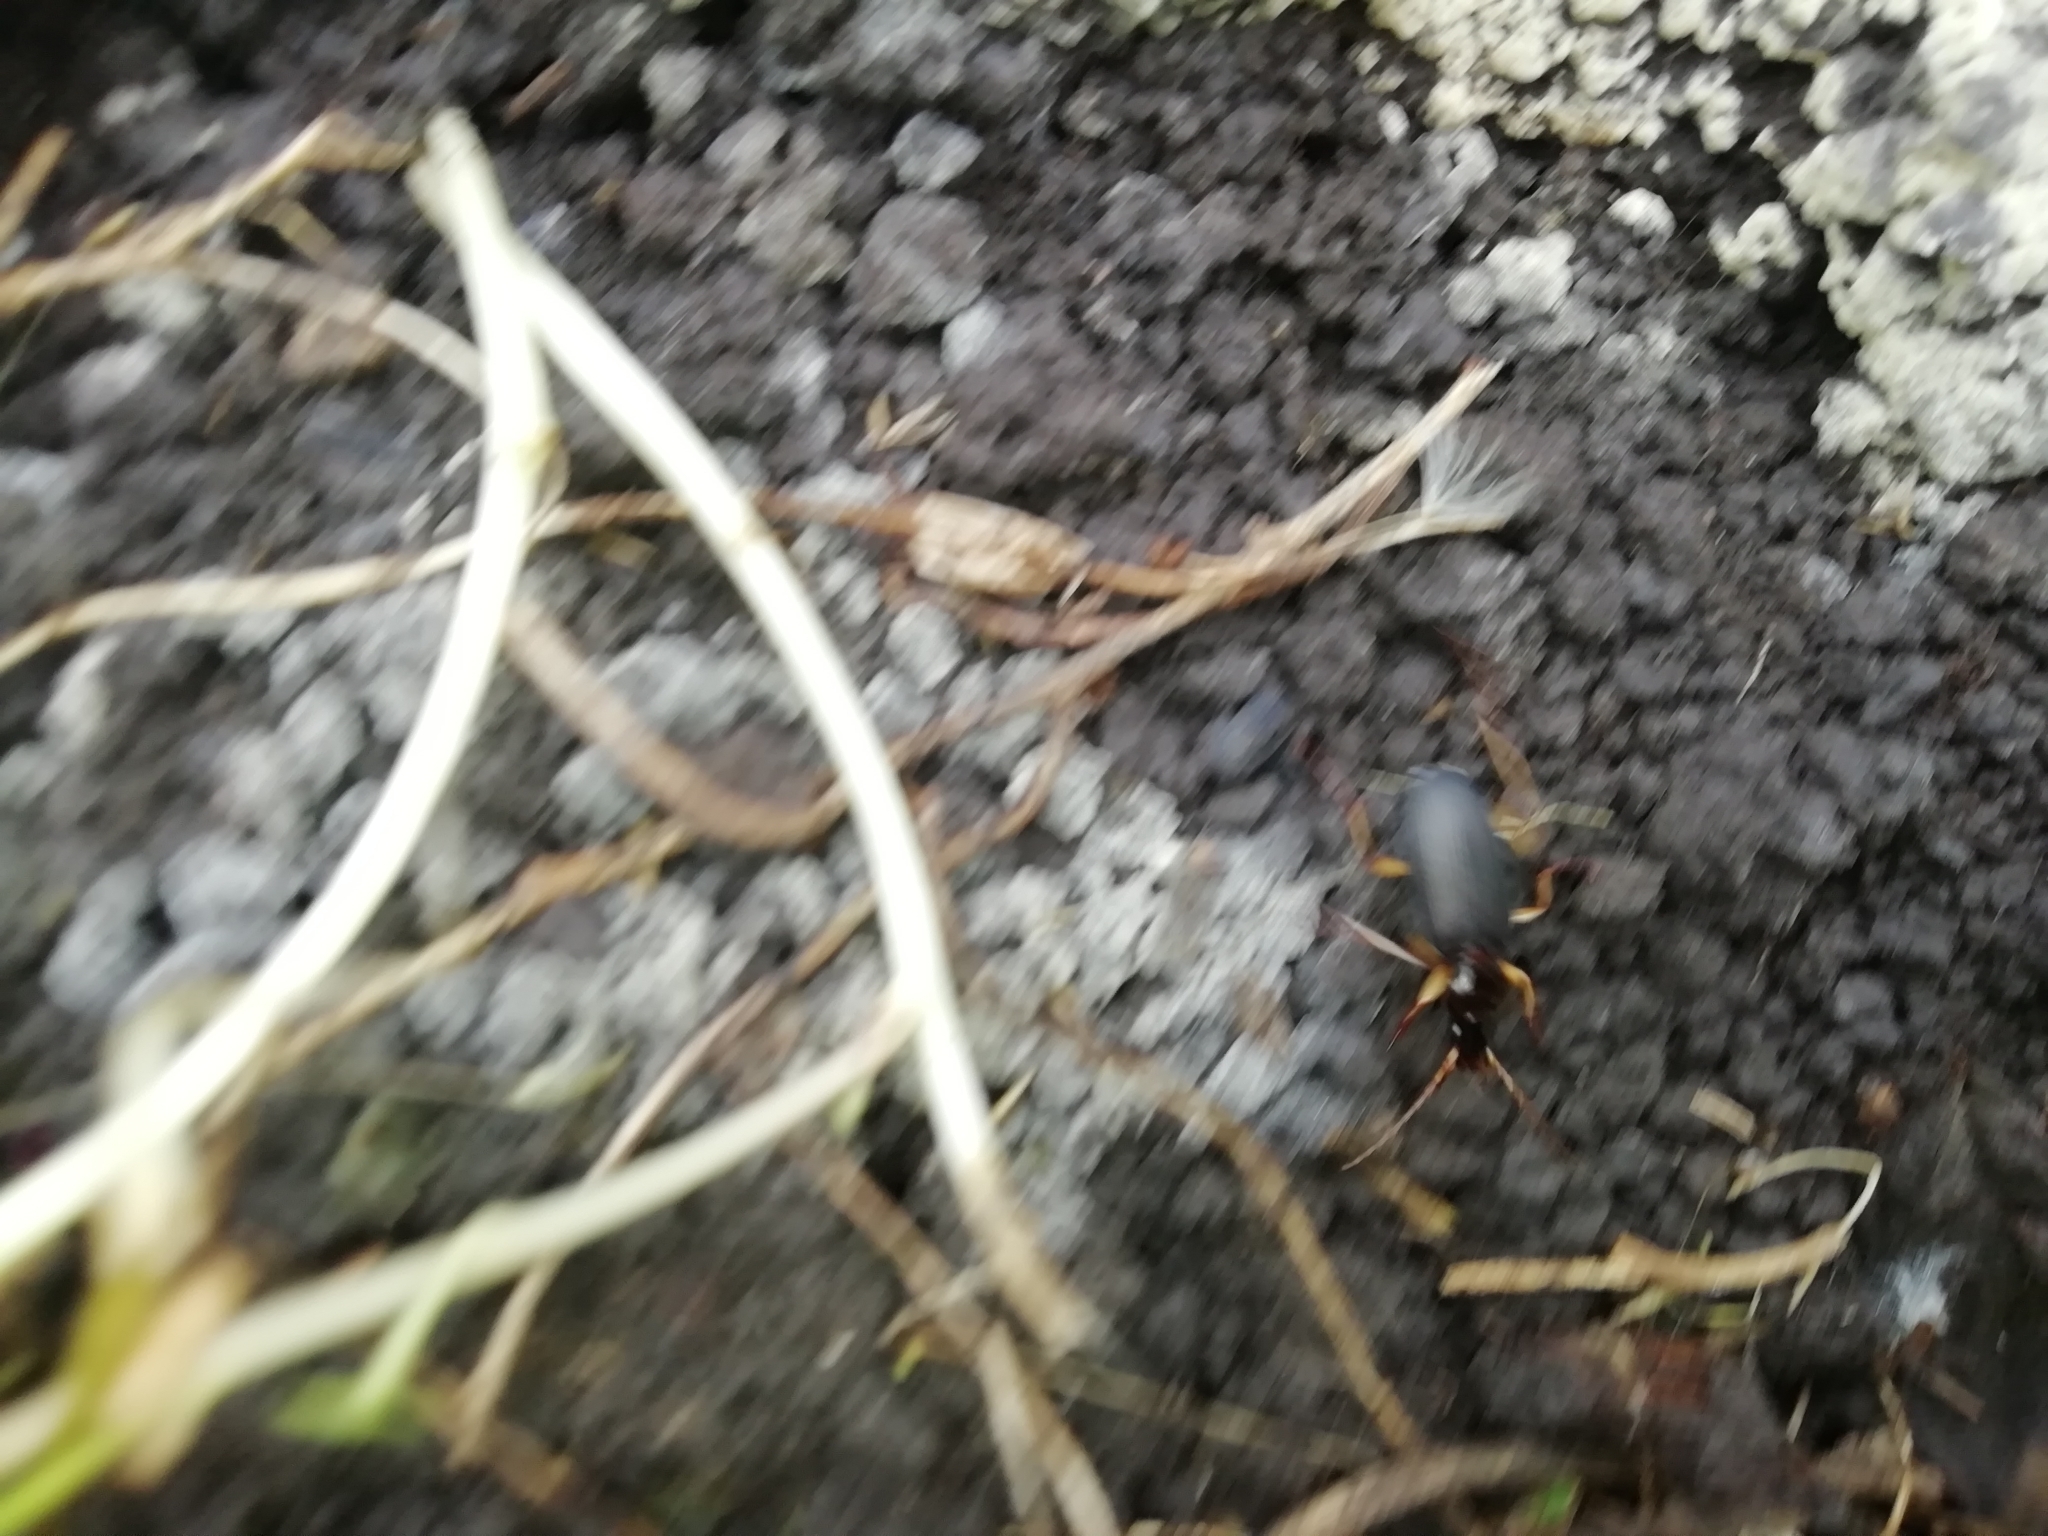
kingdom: Animalia
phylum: Arthropoda
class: Insecta
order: Coleoptera
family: Carabidae
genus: Dolichus
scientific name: Dolichus halensis
